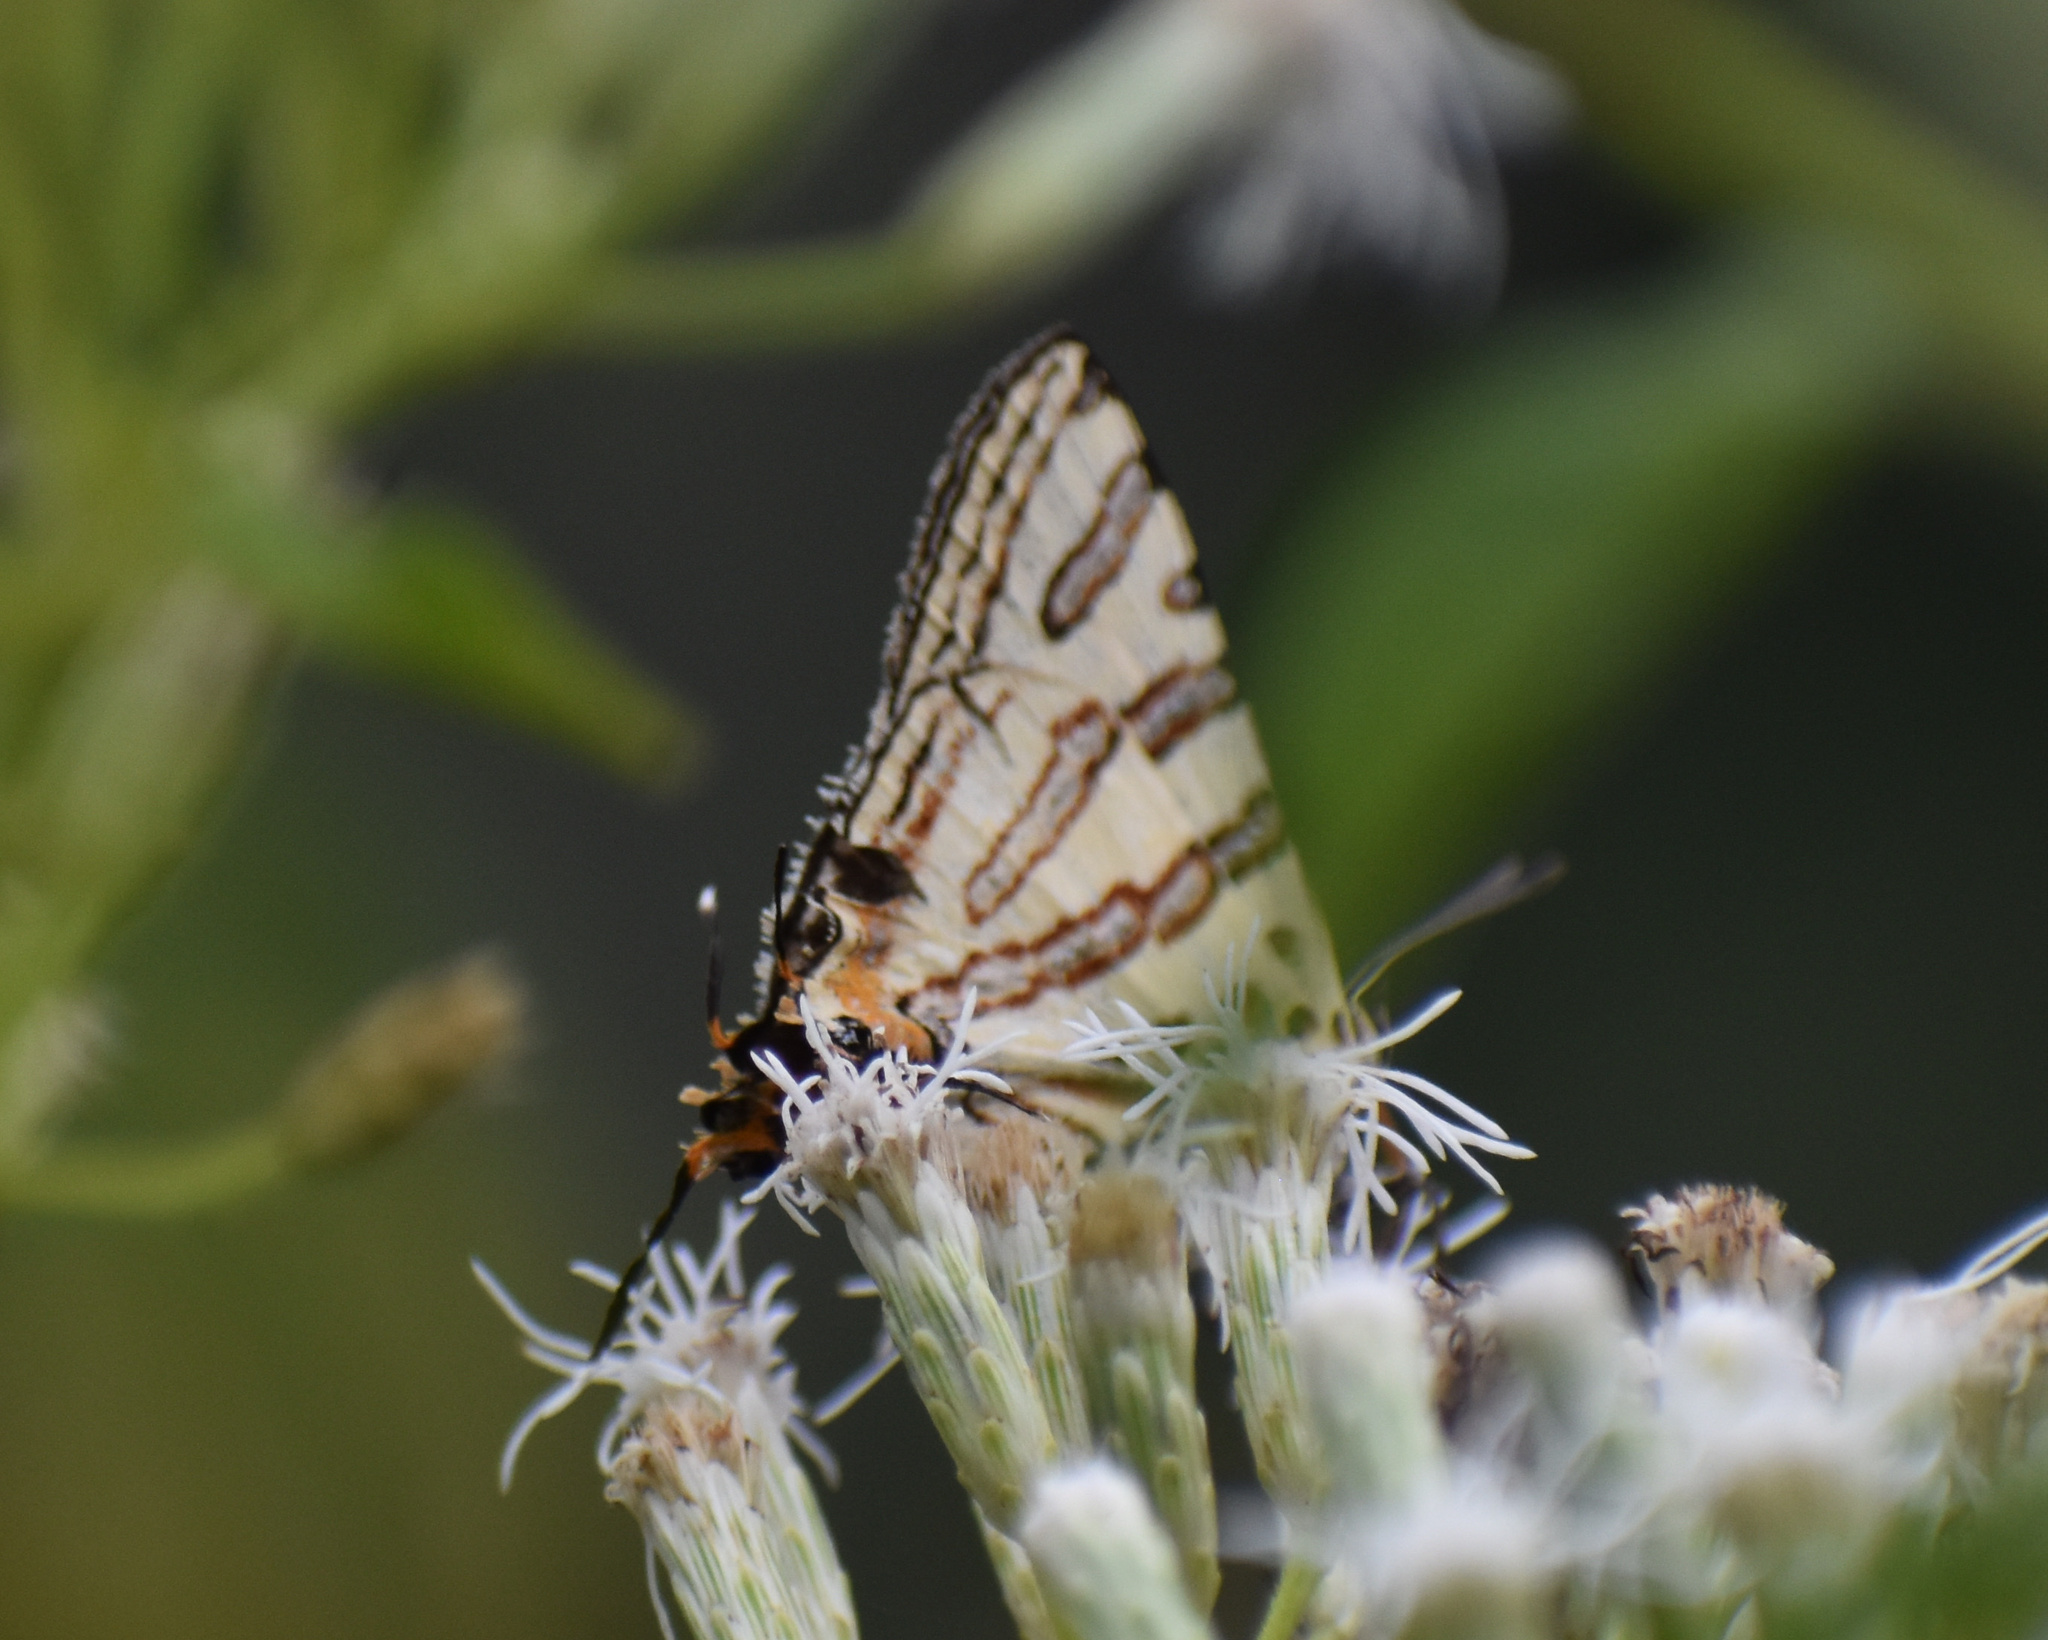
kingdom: Animalia
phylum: Arthropoda
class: Insecta
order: Lepidoptera
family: Lycaenidae
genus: Spindasis
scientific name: Spindasis natalensis
